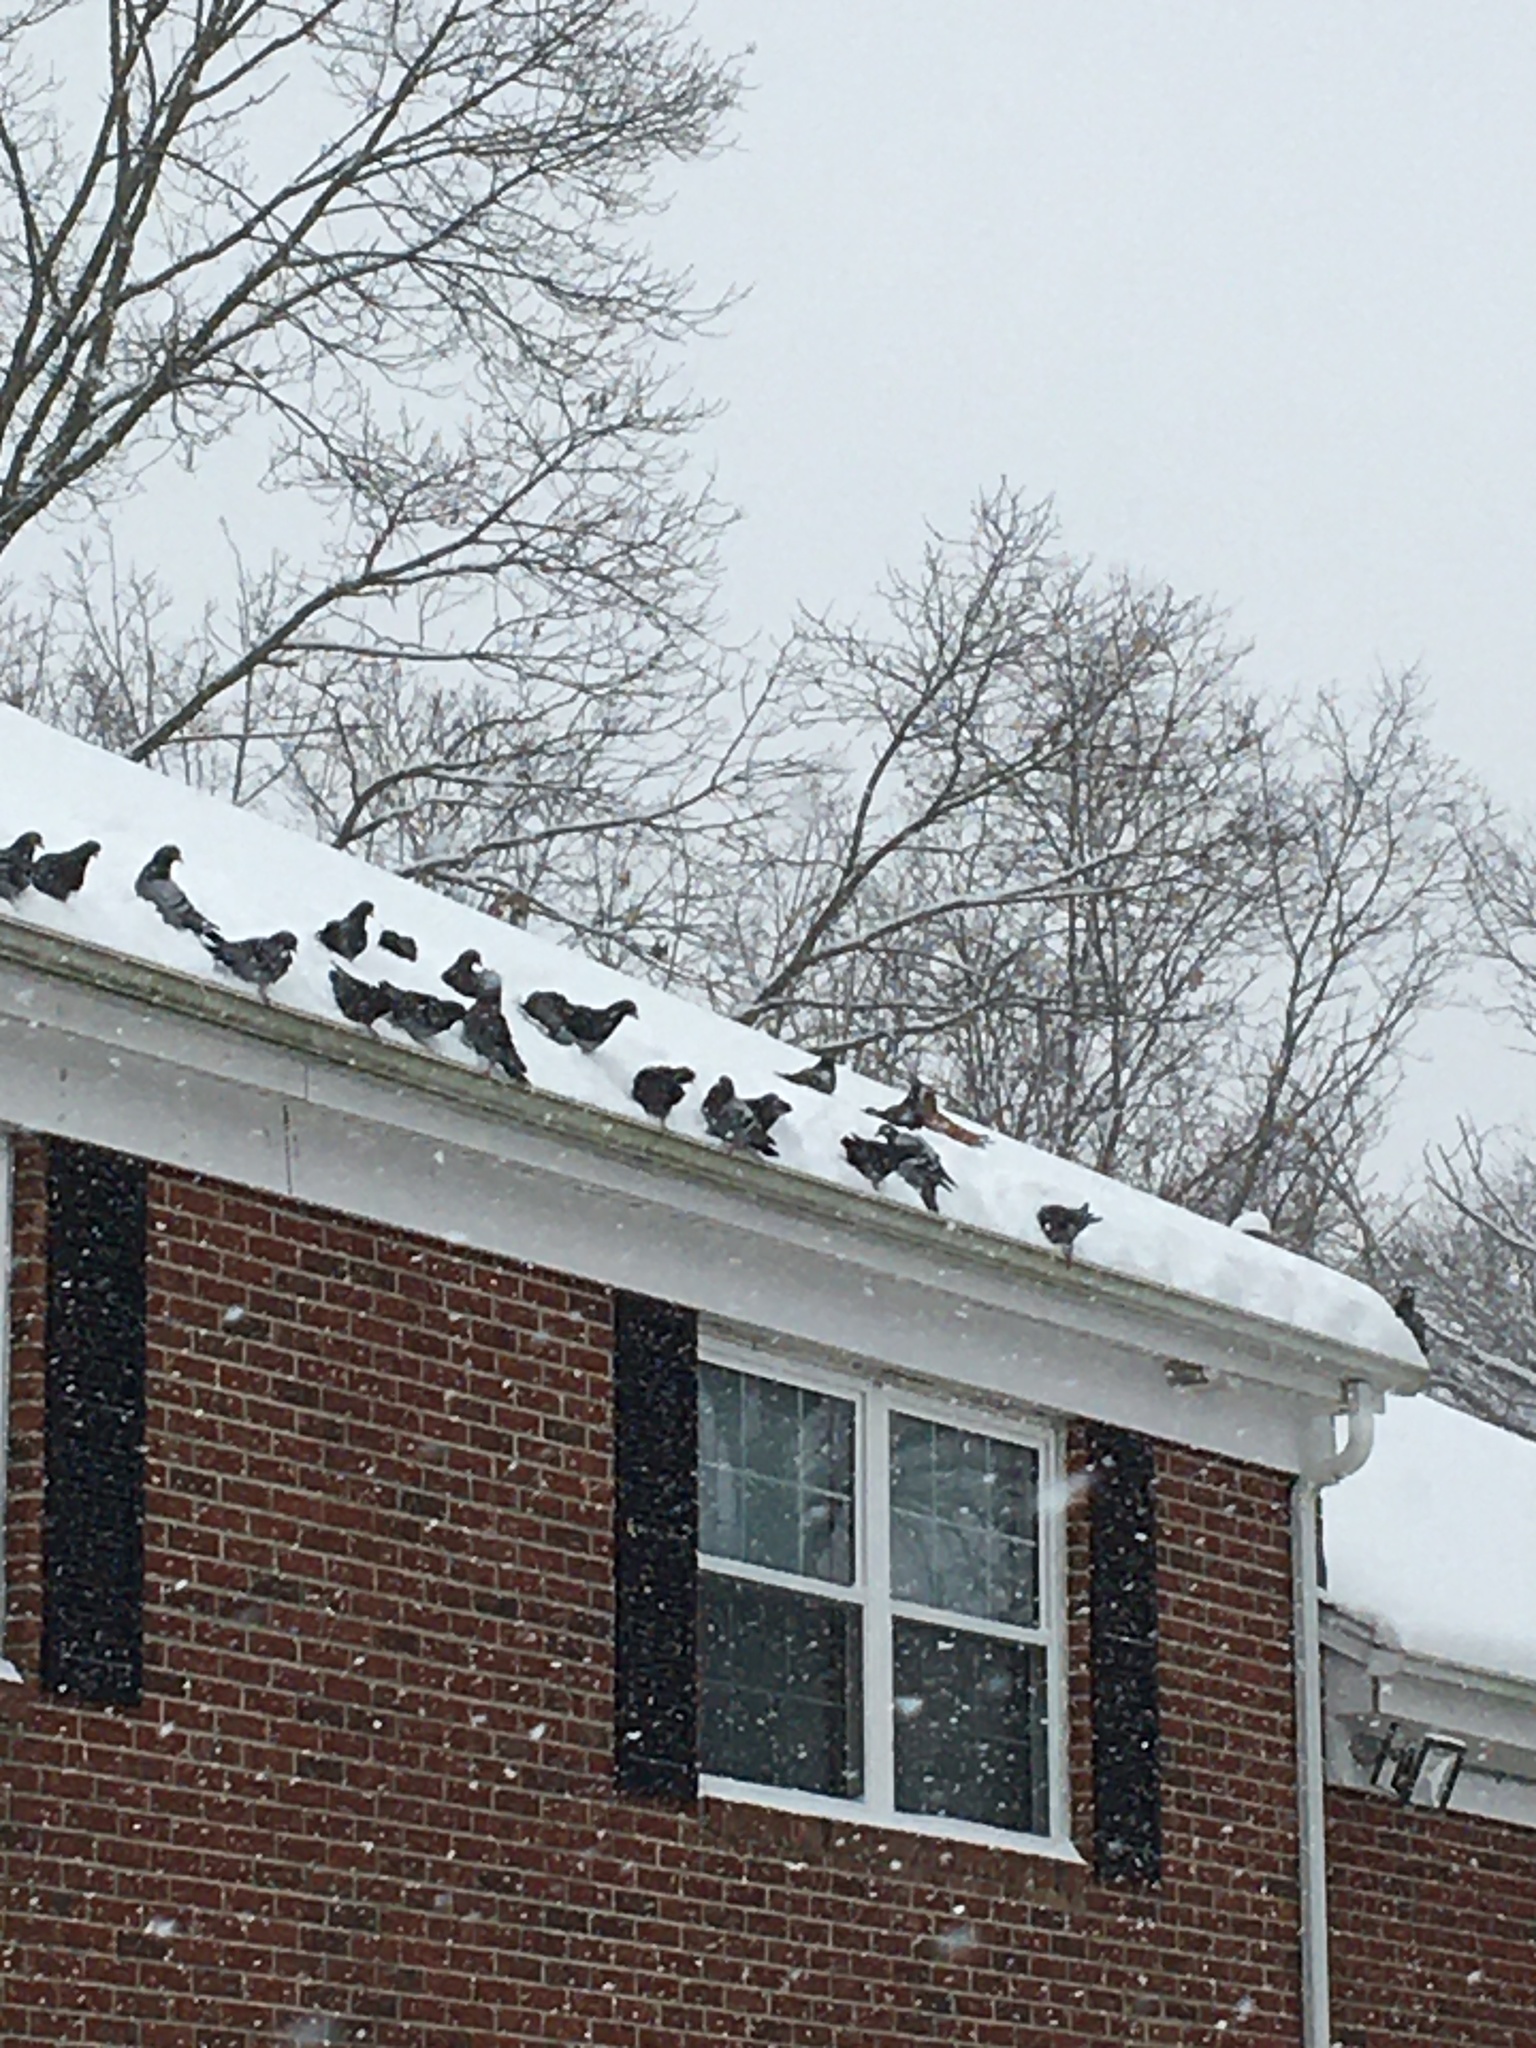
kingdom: Animalia
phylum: Chordata
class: Aves
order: Columbiformes
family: Columbidae
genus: Columba
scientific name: Columba livia
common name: Rock pigeon
